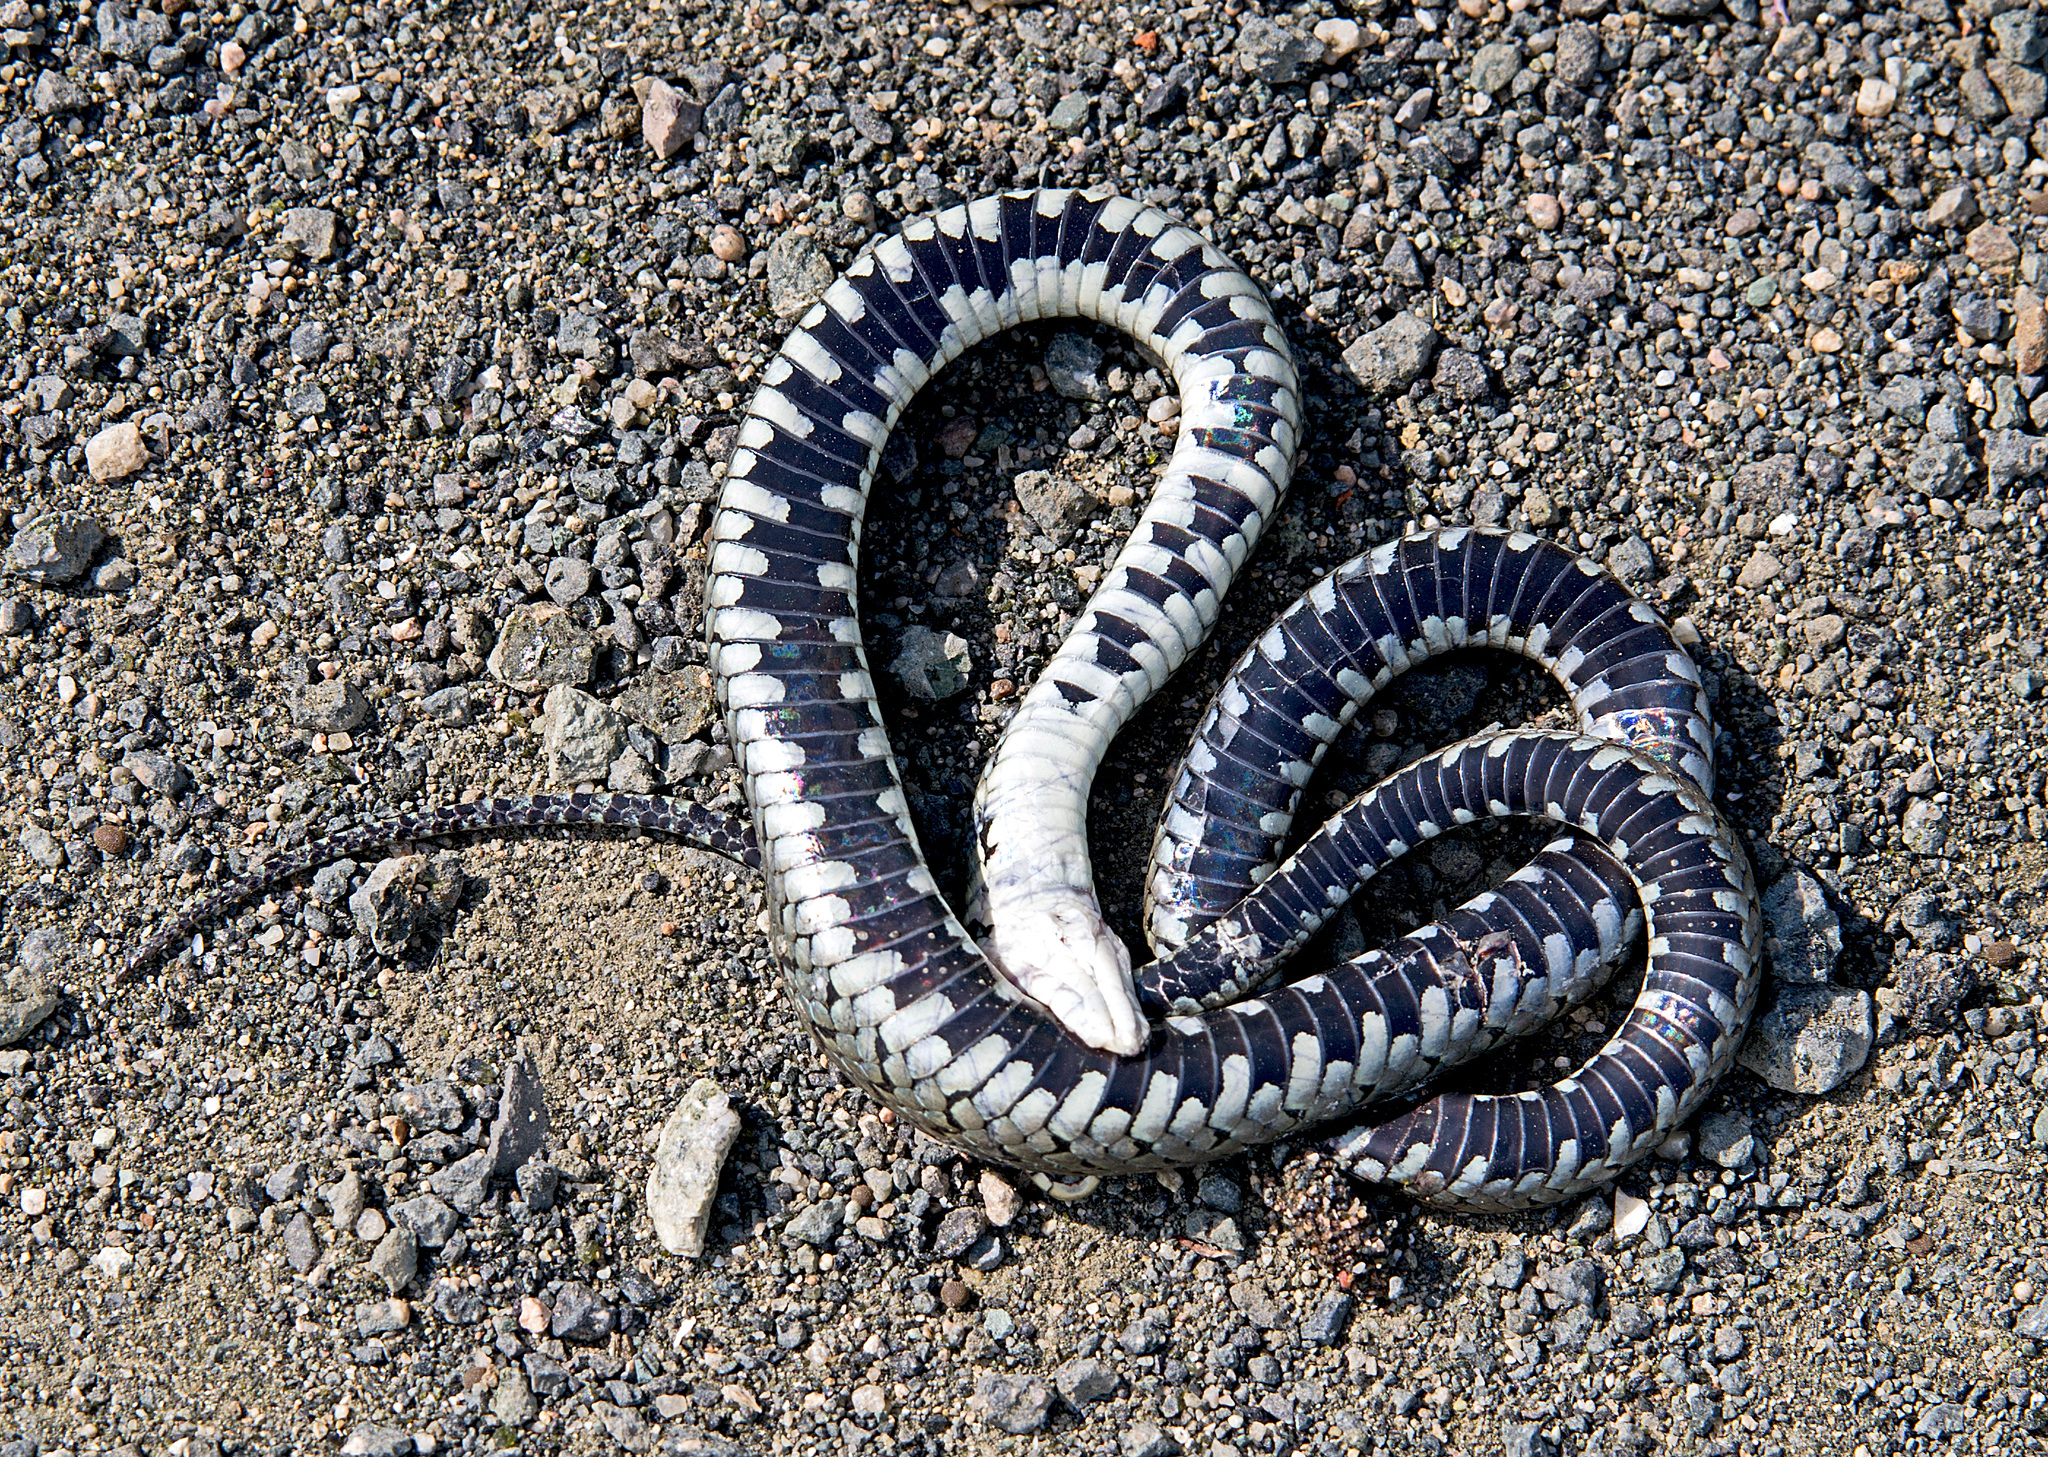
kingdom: Animalia
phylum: Chordata
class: Squamata
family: Colubridae
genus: Natrix
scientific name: Natrix natrix
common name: Grass snake
